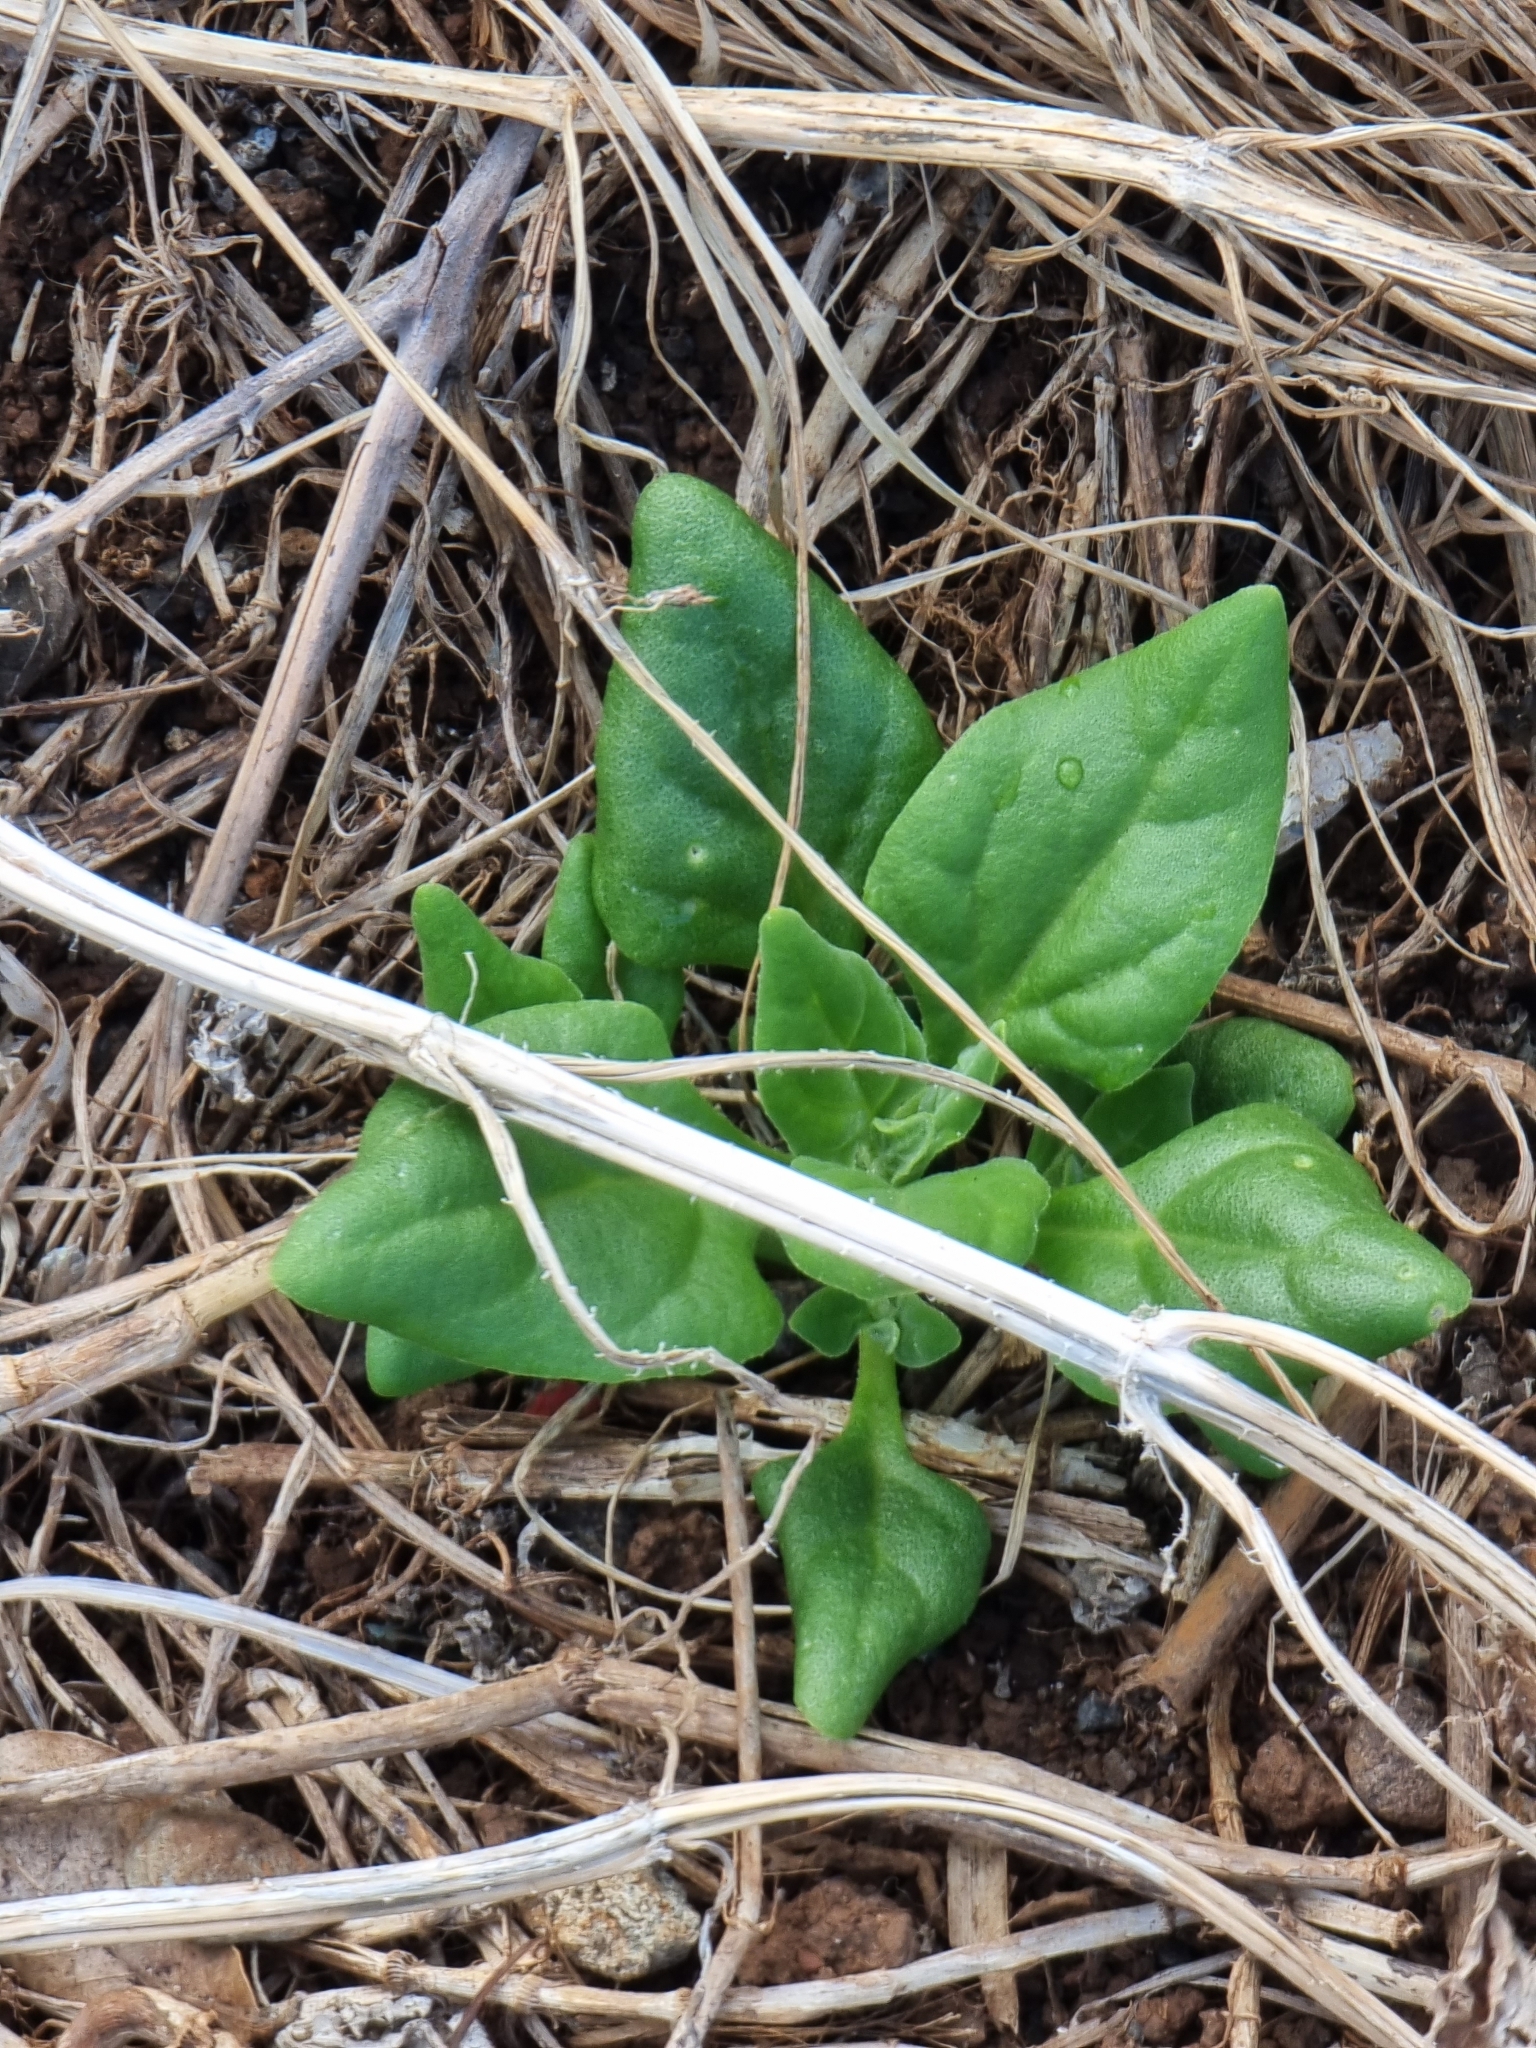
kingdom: Plantae
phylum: Tracheophyta
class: Magnoliopsida
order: Caryophyllales
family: Aizoaceae
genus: Tetragonia
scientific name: Tetragonia tetragonoides
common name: New zealand-spinach
